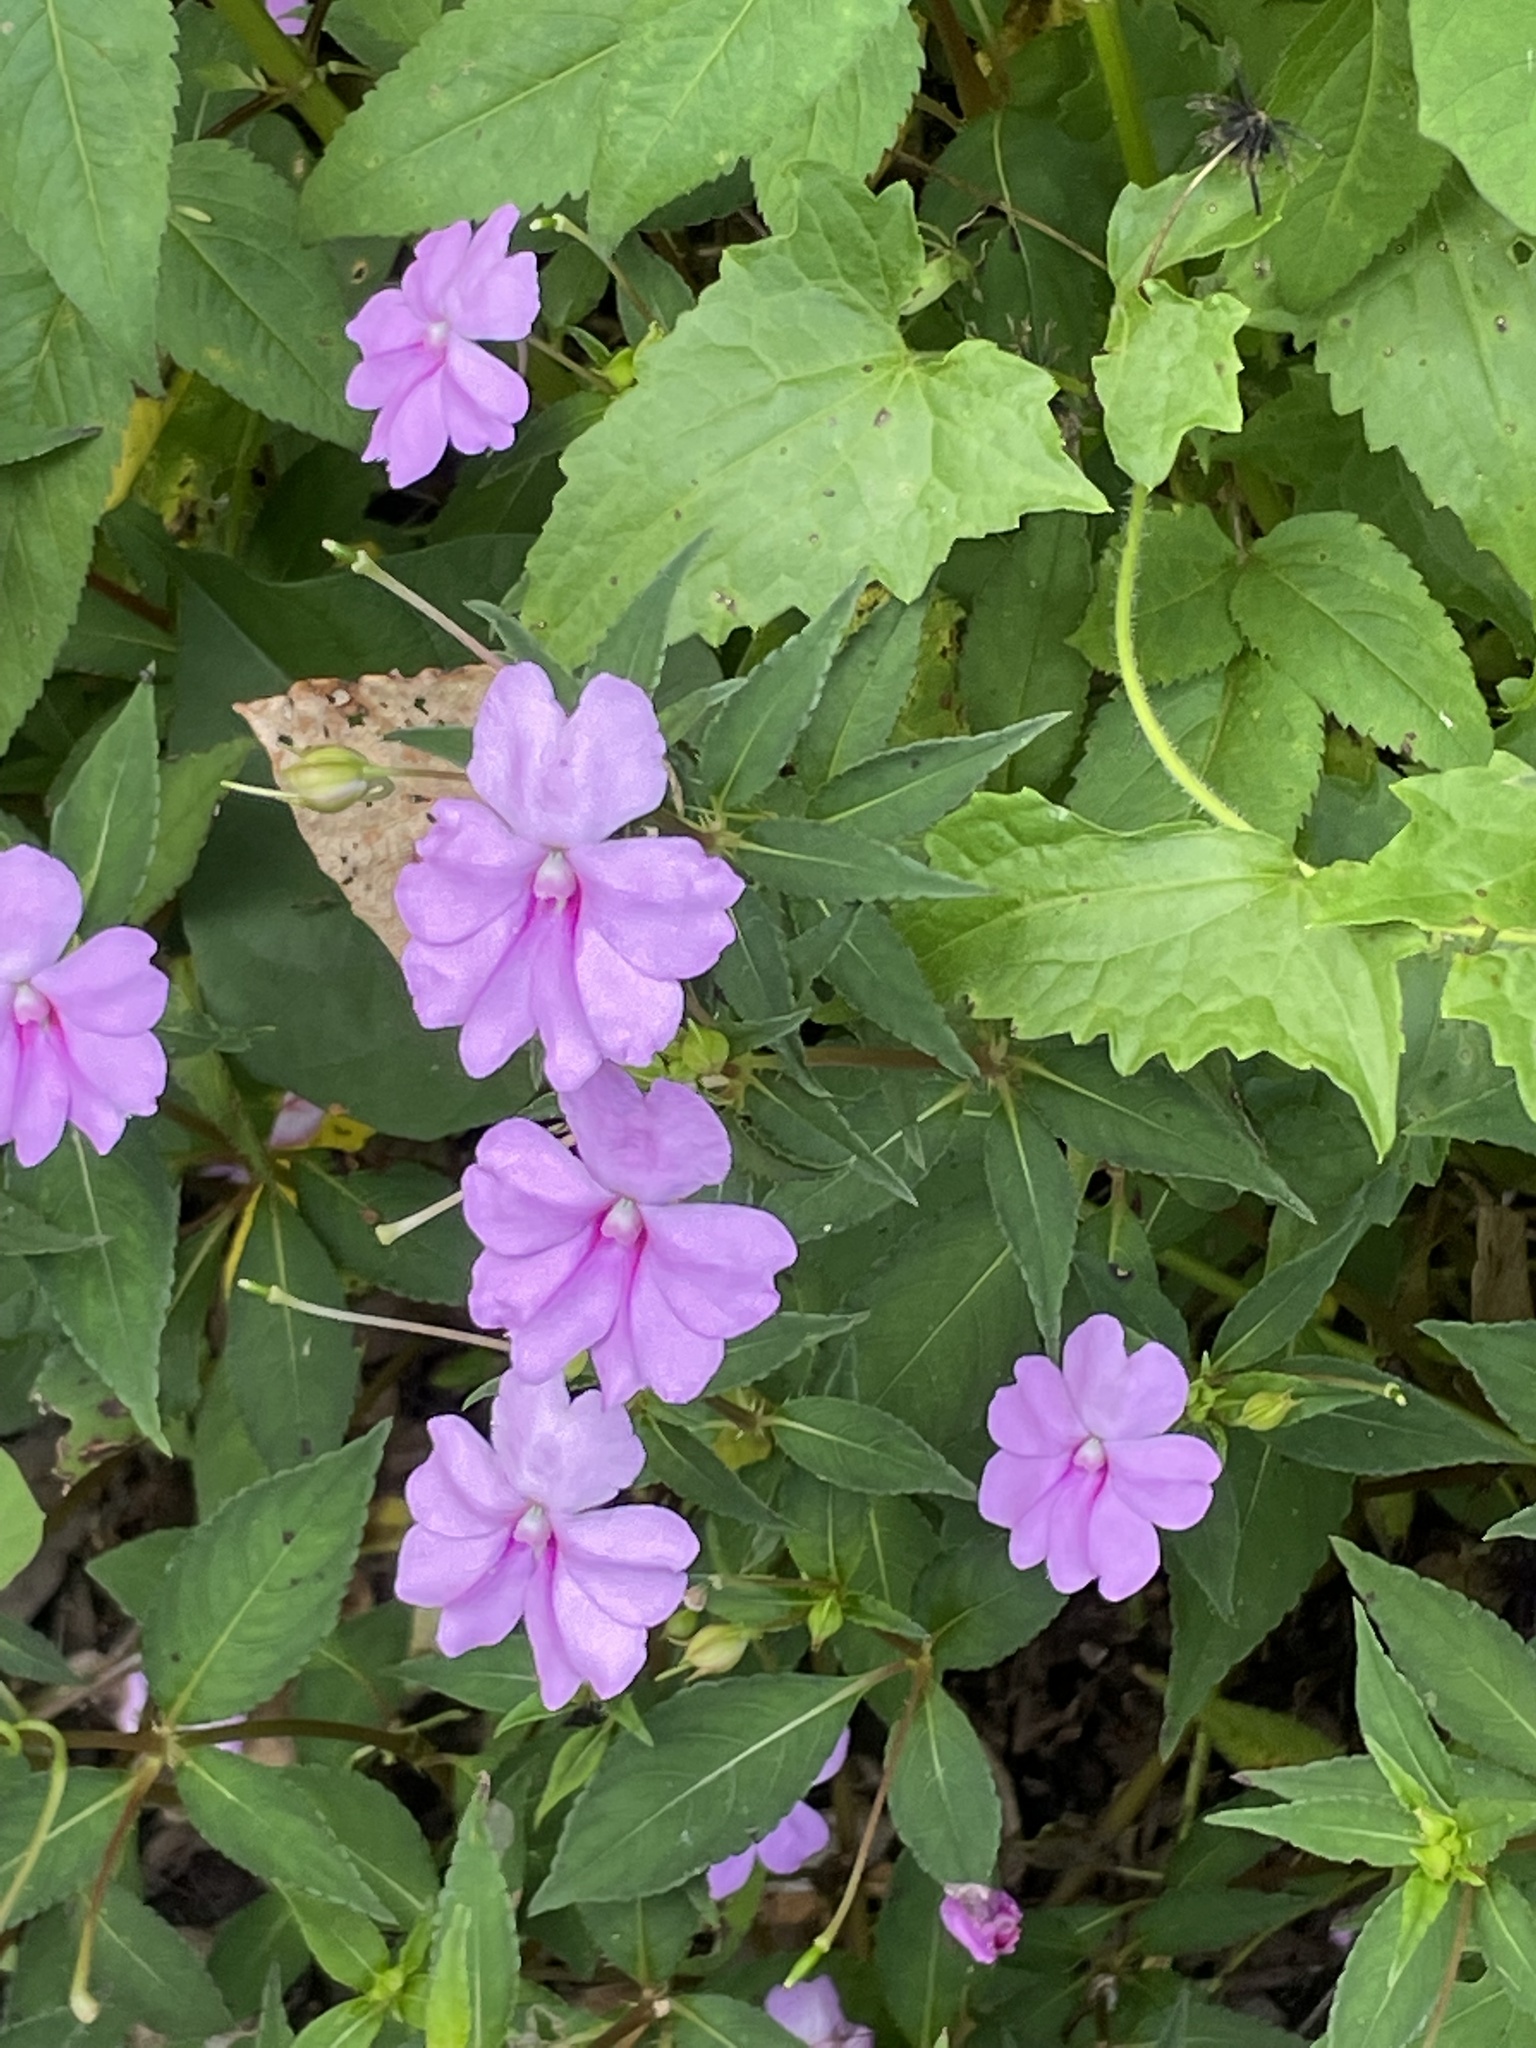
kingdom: Plantae
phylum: Tracheophyta
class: Magnoliopsida
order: Ericales
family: Balsaminaceae
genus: Impatiens
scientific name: Impatiens platypetala
